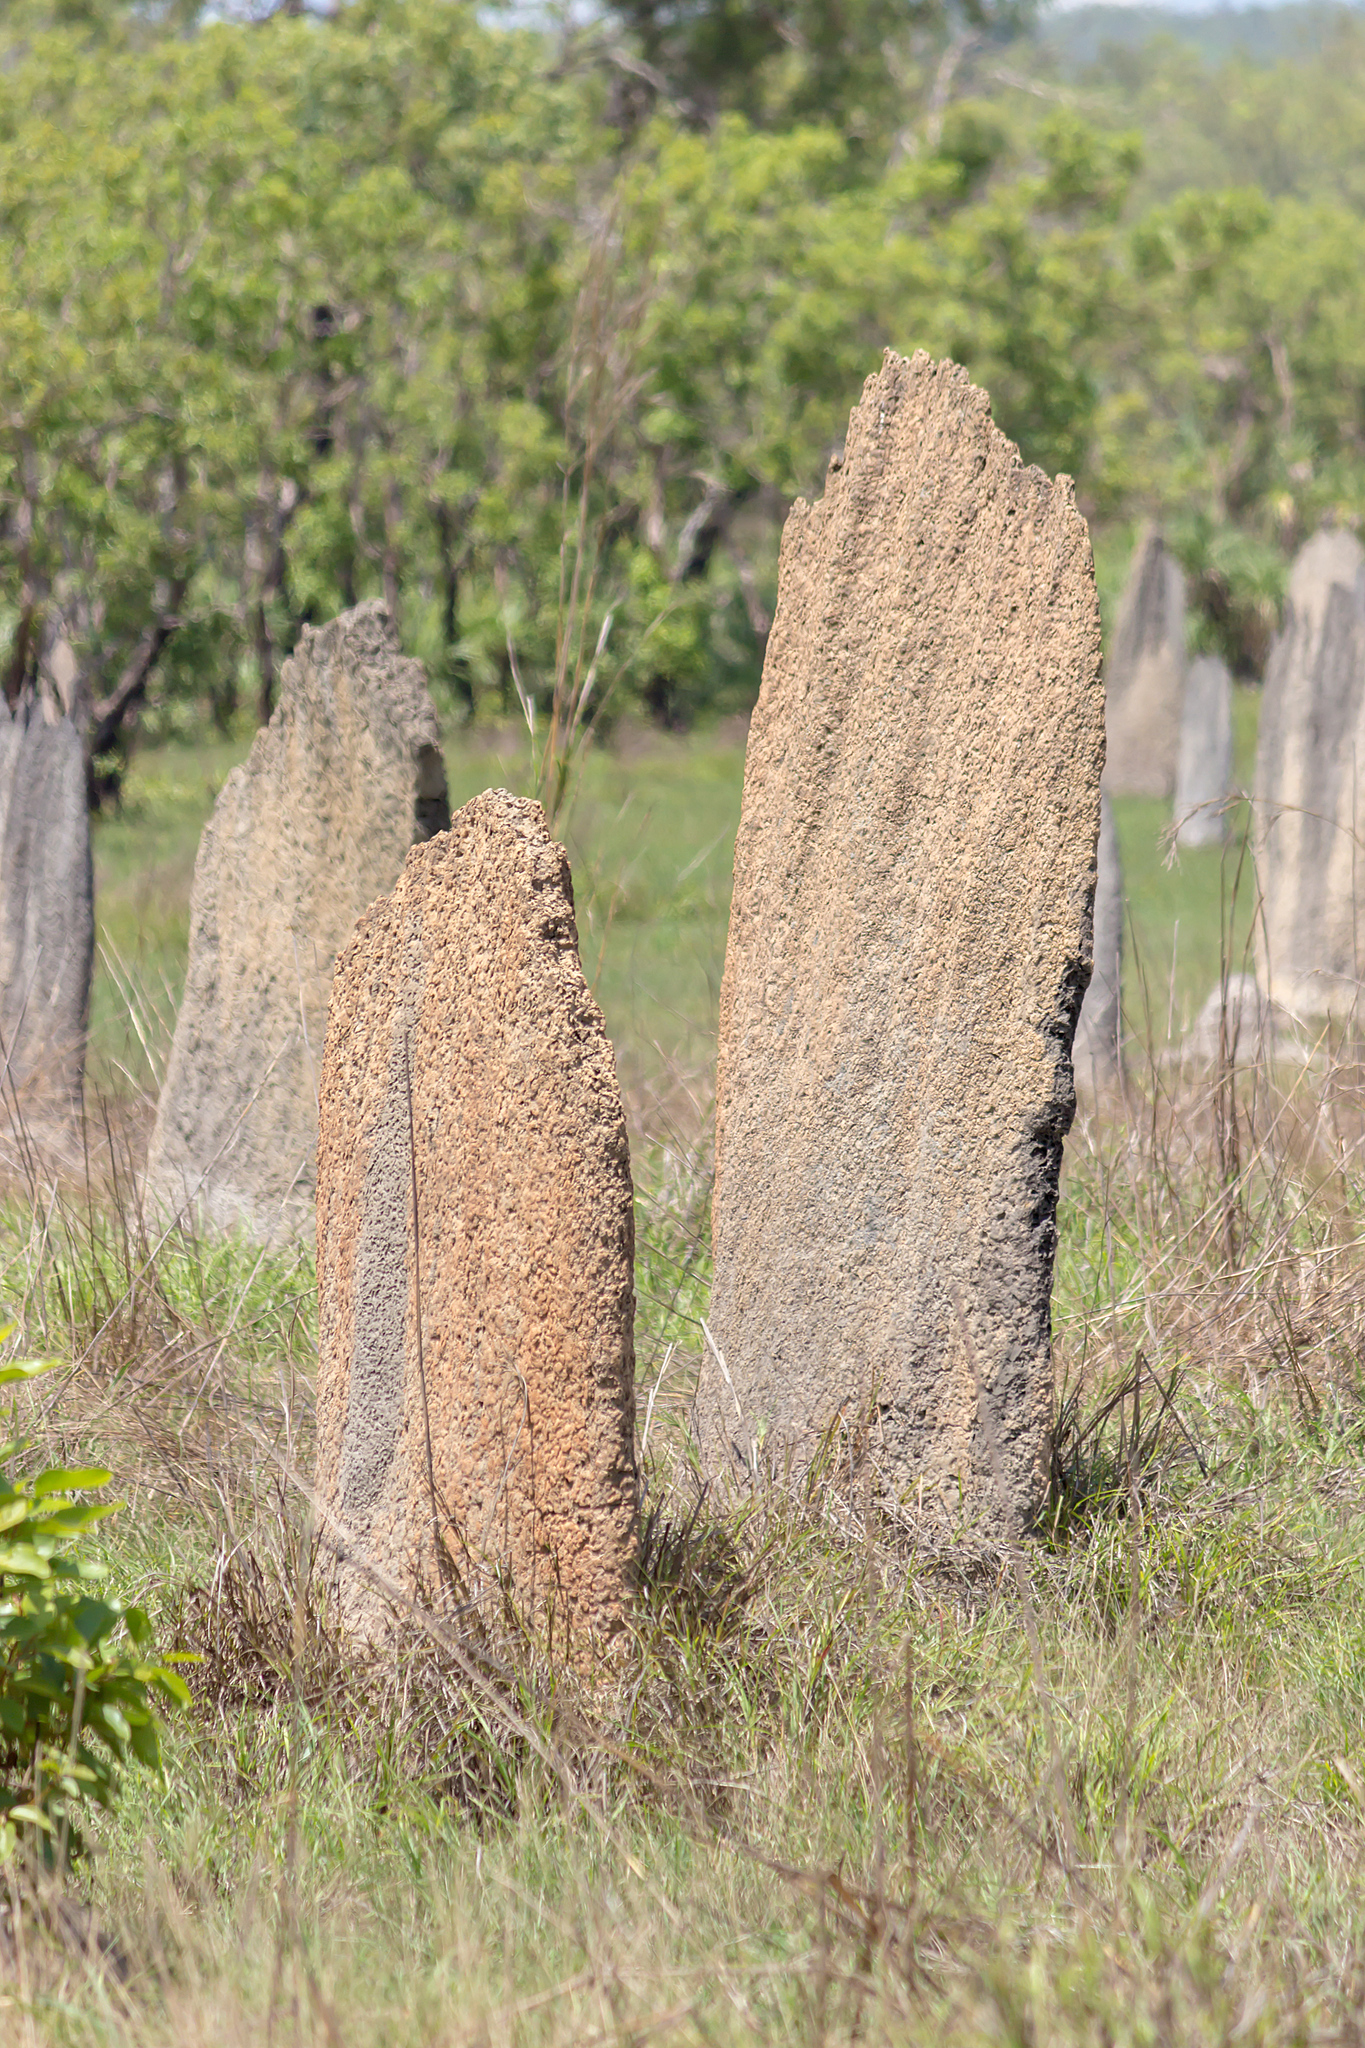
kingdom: Animalia
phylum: Arthropoda
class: Insecta
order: Blattodea
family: Termitidae
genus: Amitermes
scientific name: Amitermes meridionalis
